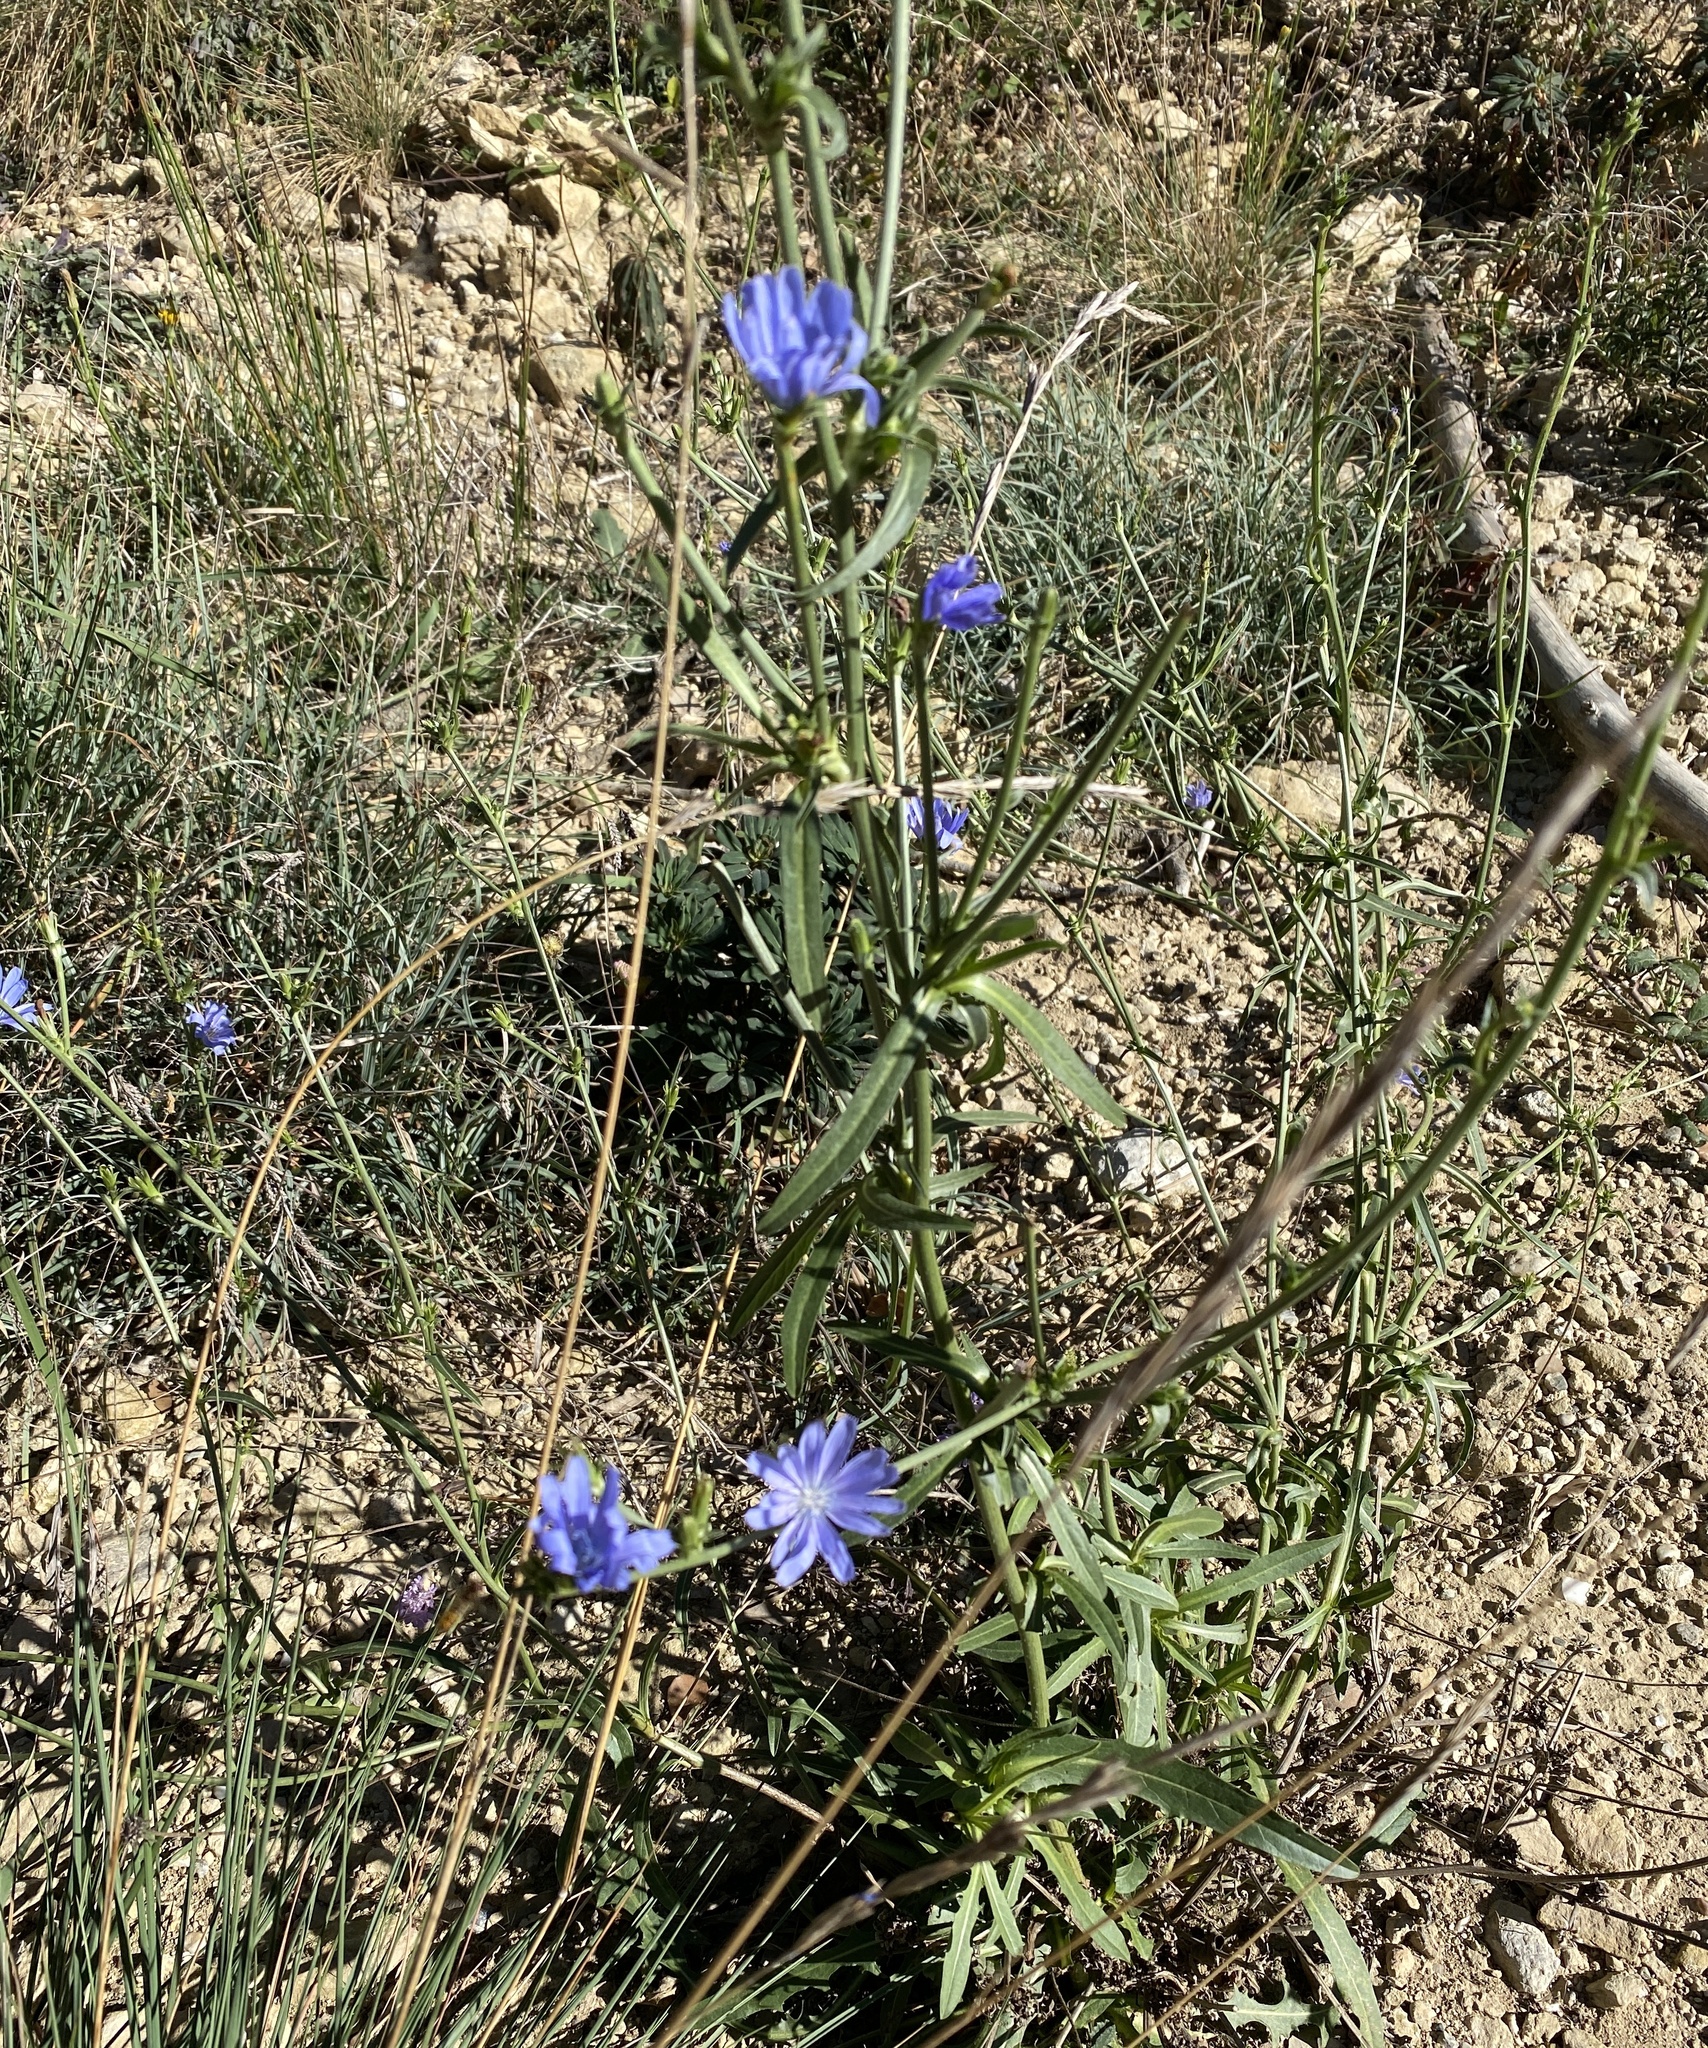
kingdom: Plantae
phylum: Tracheophyta
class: Magnoliopsida
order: Asterales
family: Asteraceae
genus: Cichorium
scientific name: Cichorium intybus
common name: Chicory
